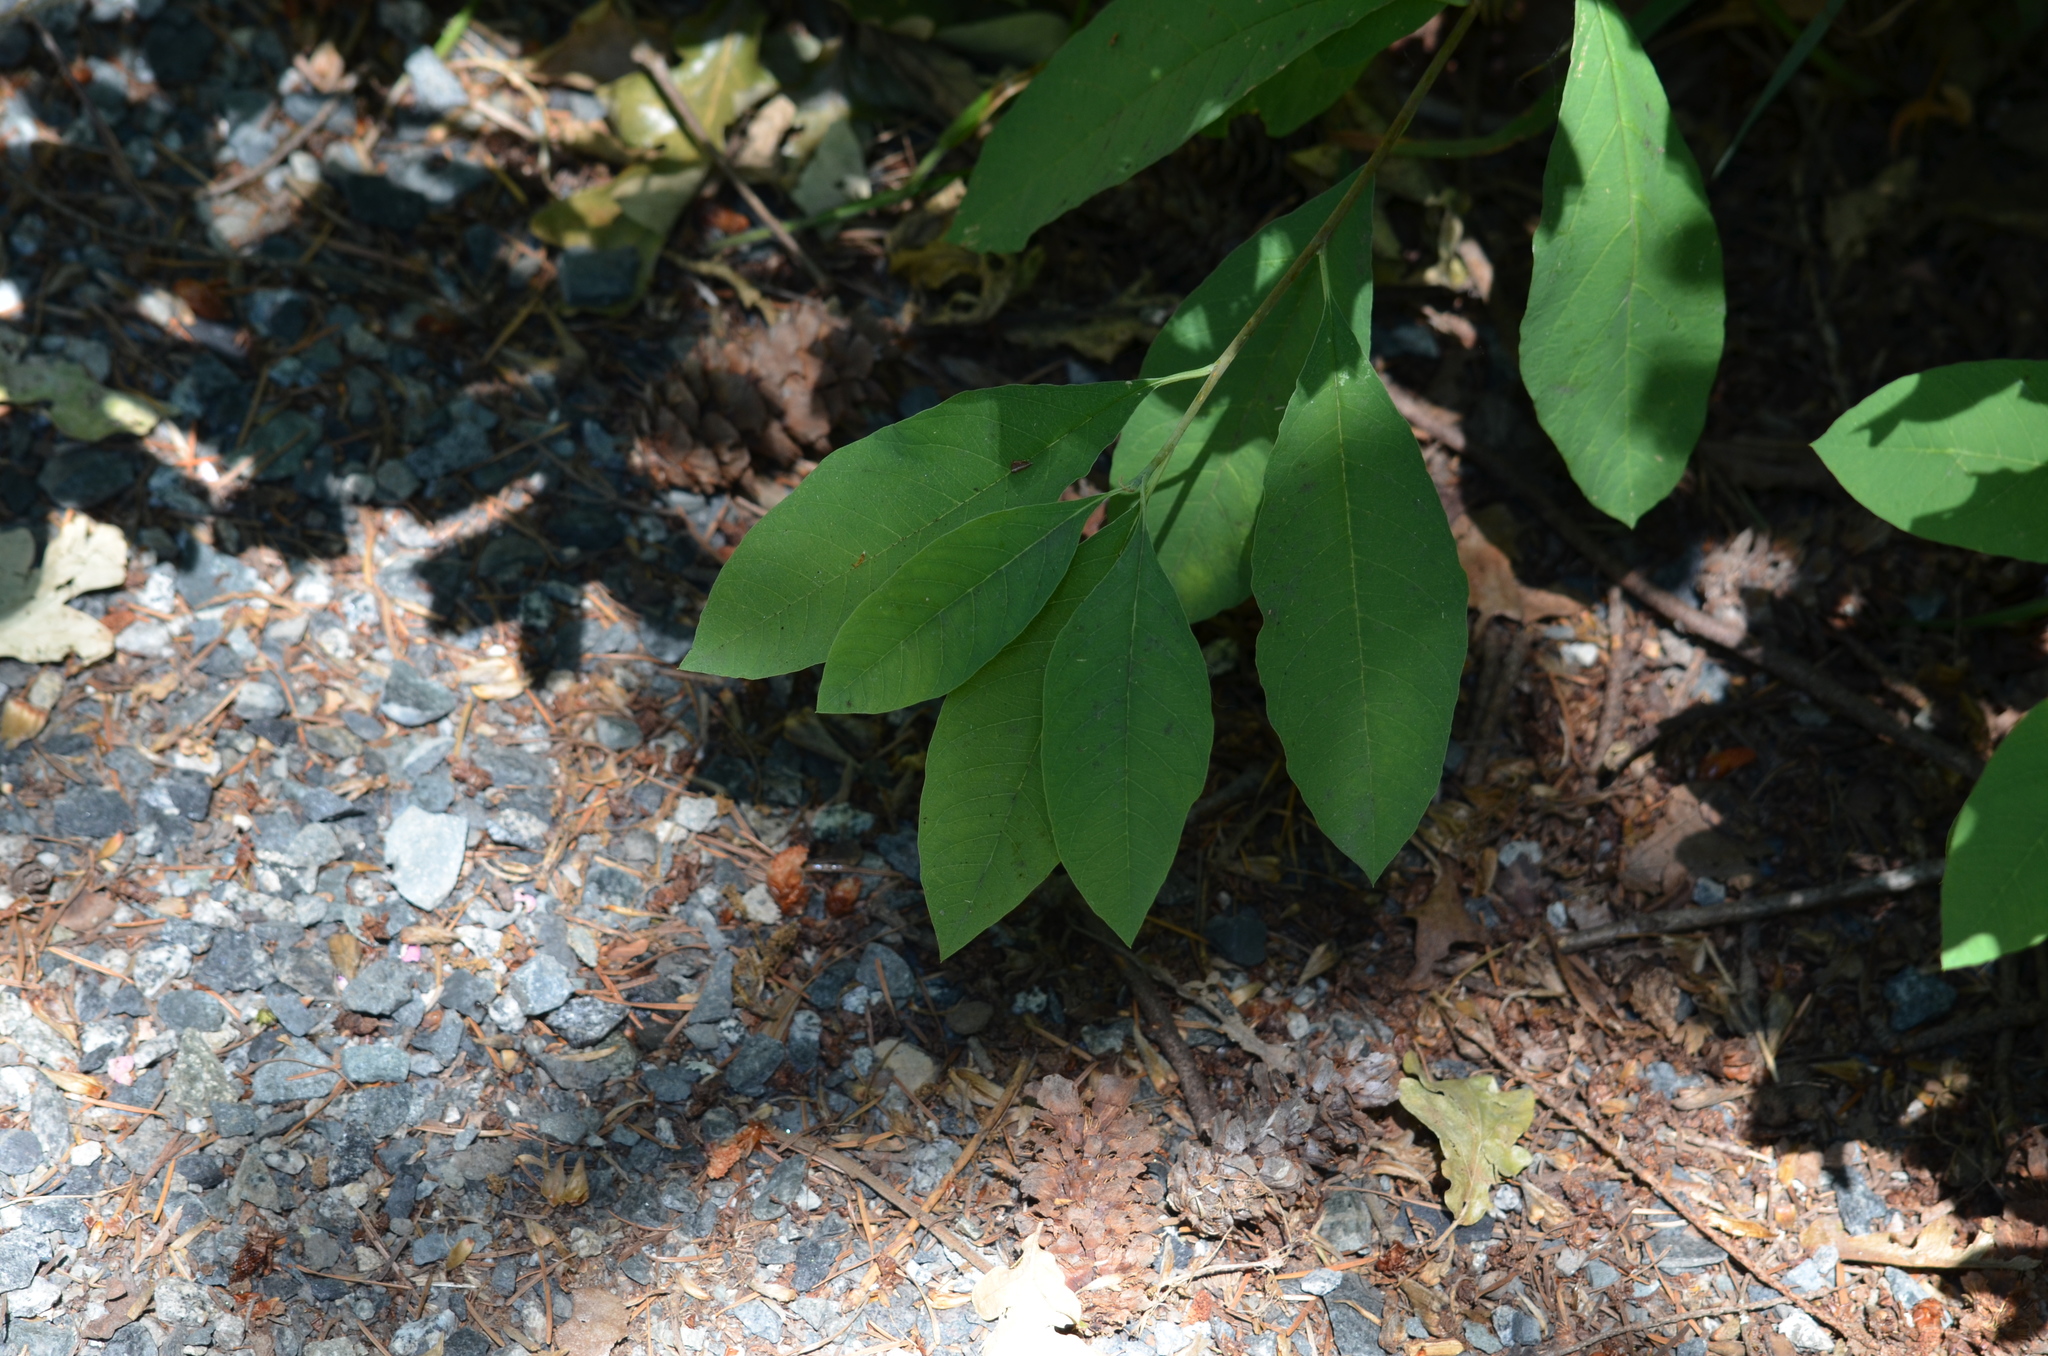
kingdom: Plantae
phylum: Tracheophyta
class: Magnoliopsida
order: Rosales
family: Rosaceae
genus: Oemleria
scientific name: Oemleria cerasiformis
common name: Osoberry
